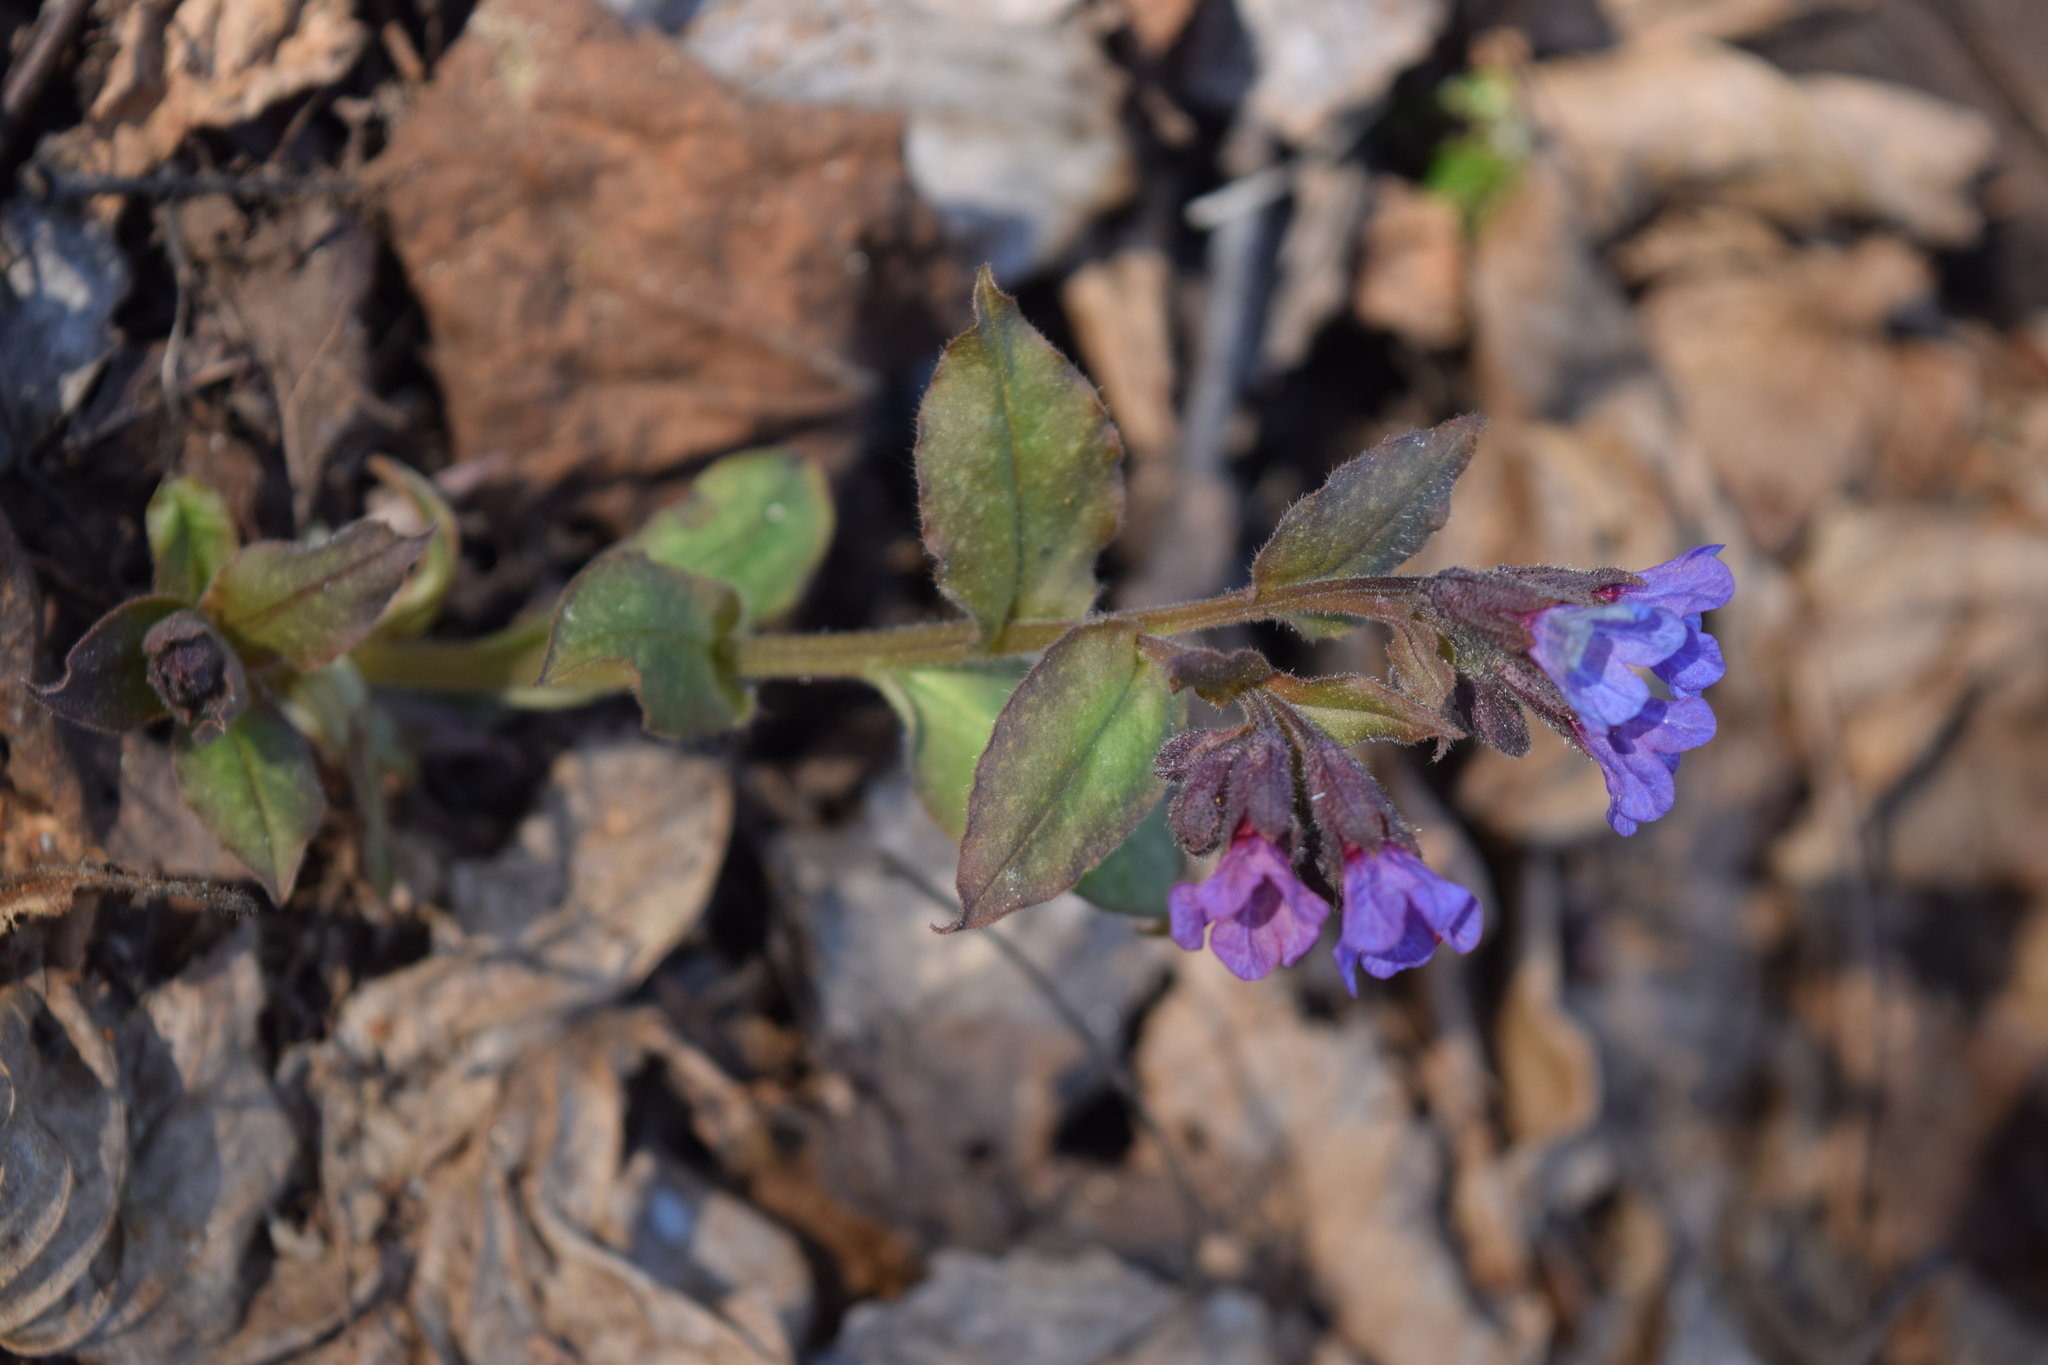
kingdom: Plantae
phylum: Tracheophyta
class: Magnoliopsida
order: Boraginales
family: Boraginaceae
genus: Pulmonaria
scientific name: Pulmonaria obscura
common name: Suffolk lungwort
